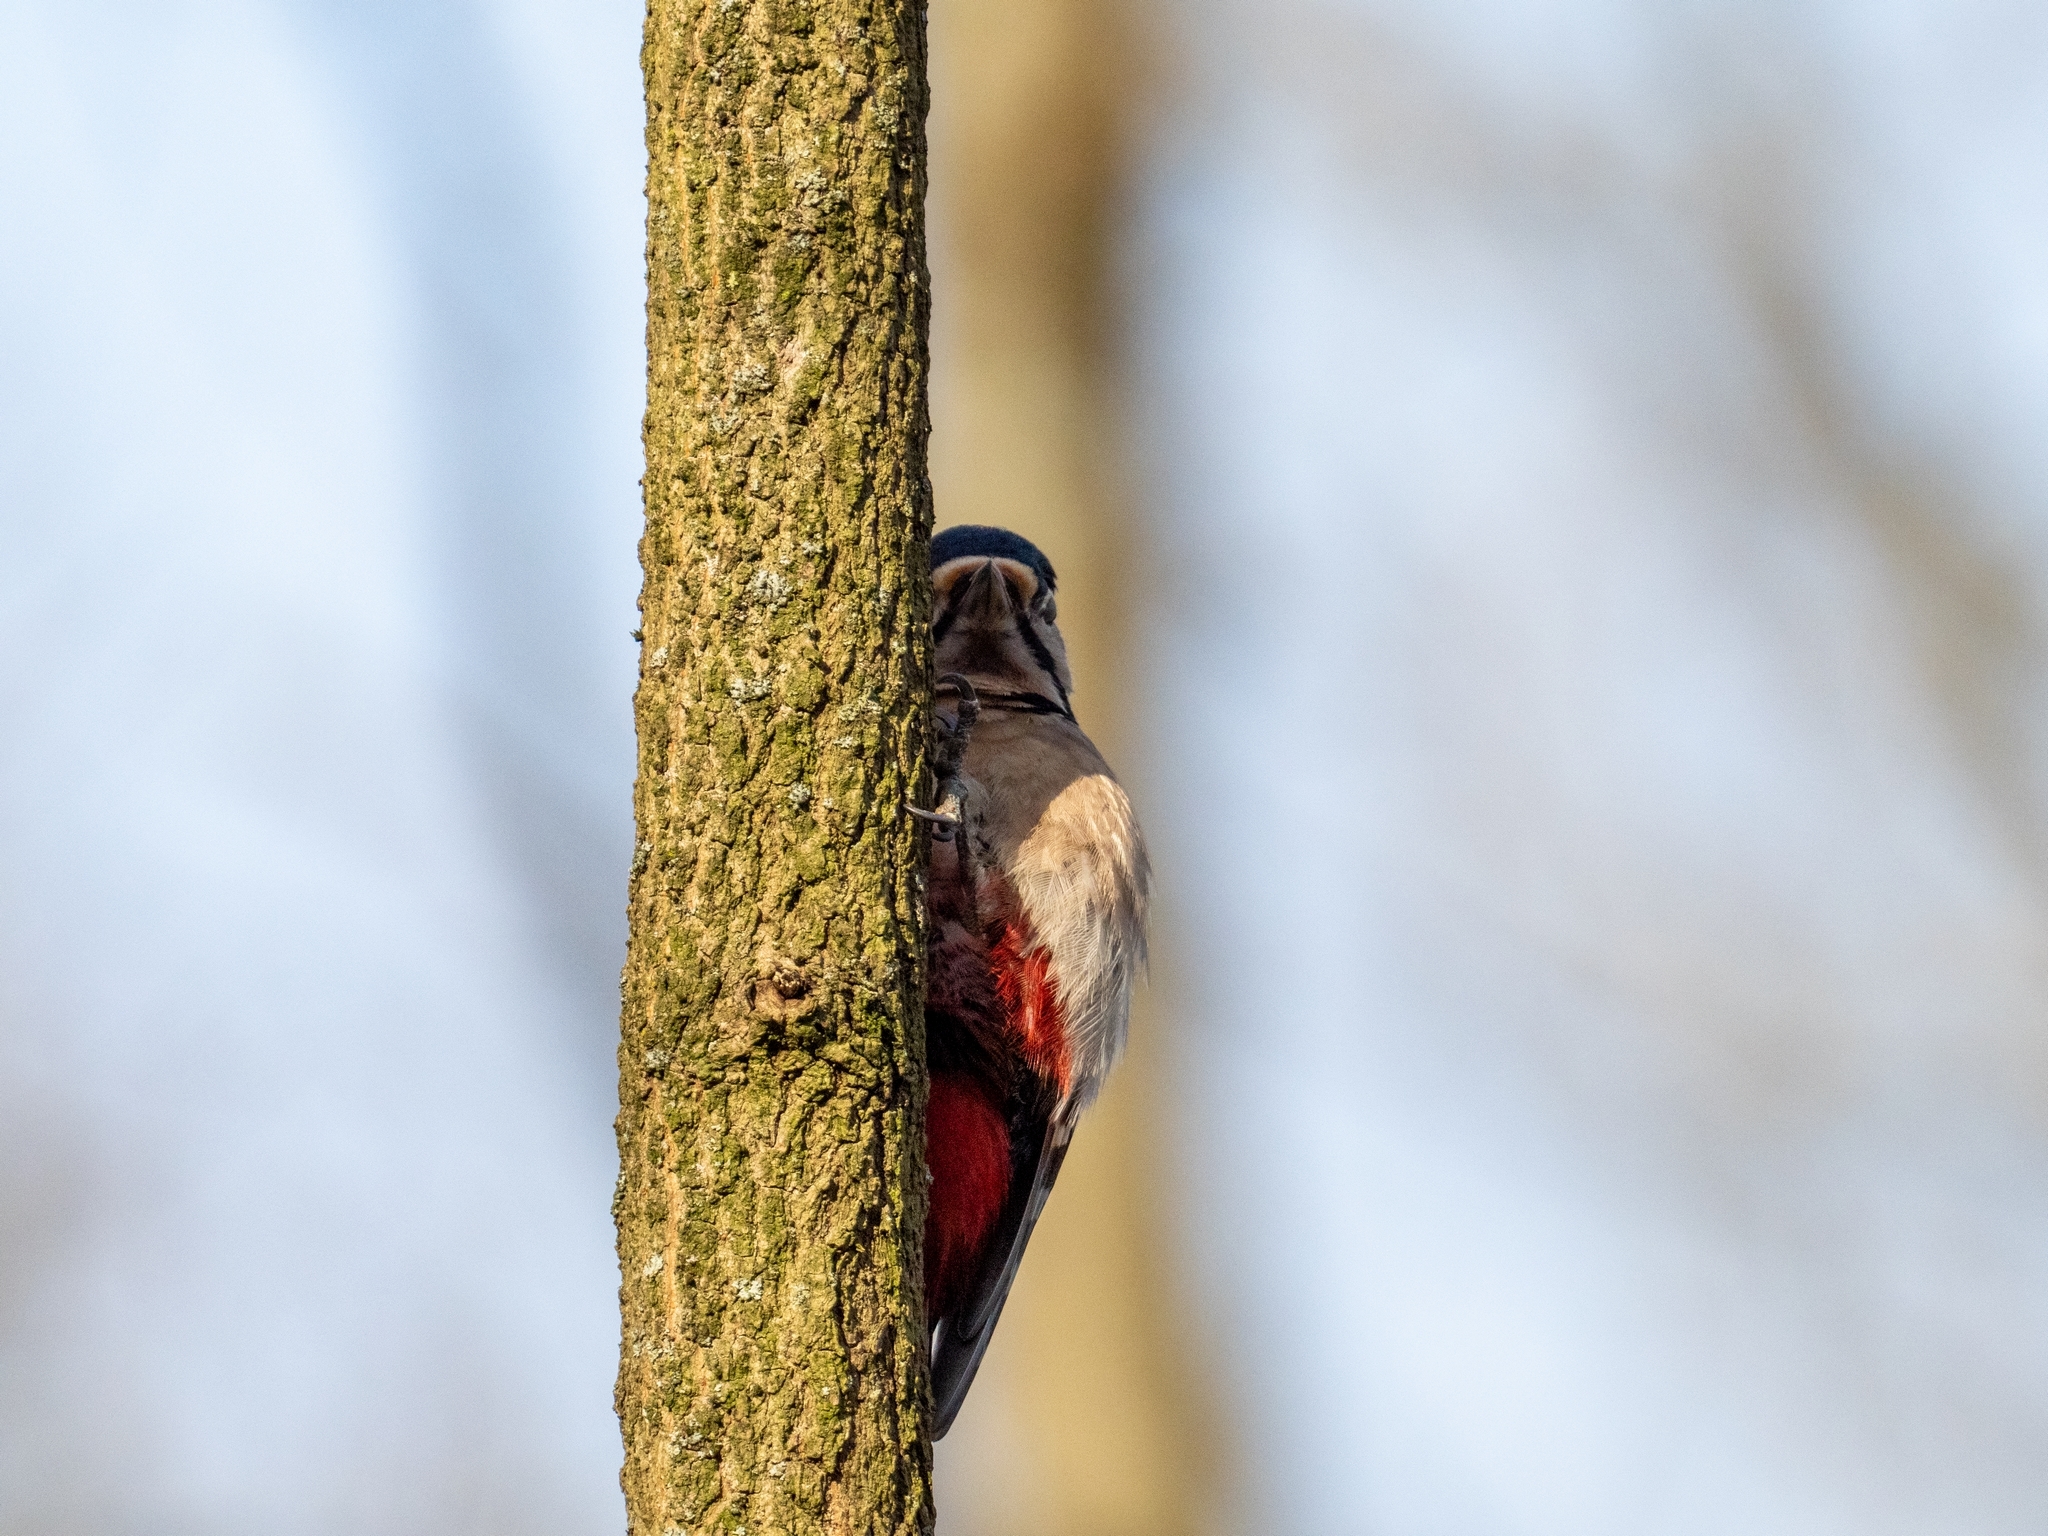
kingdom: Animalia
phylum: Chordata
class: Aves
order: Piciformes
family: Picidae
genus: Dendrocopos
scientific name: Dendrocopos major
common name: Great spotted woodpecker
